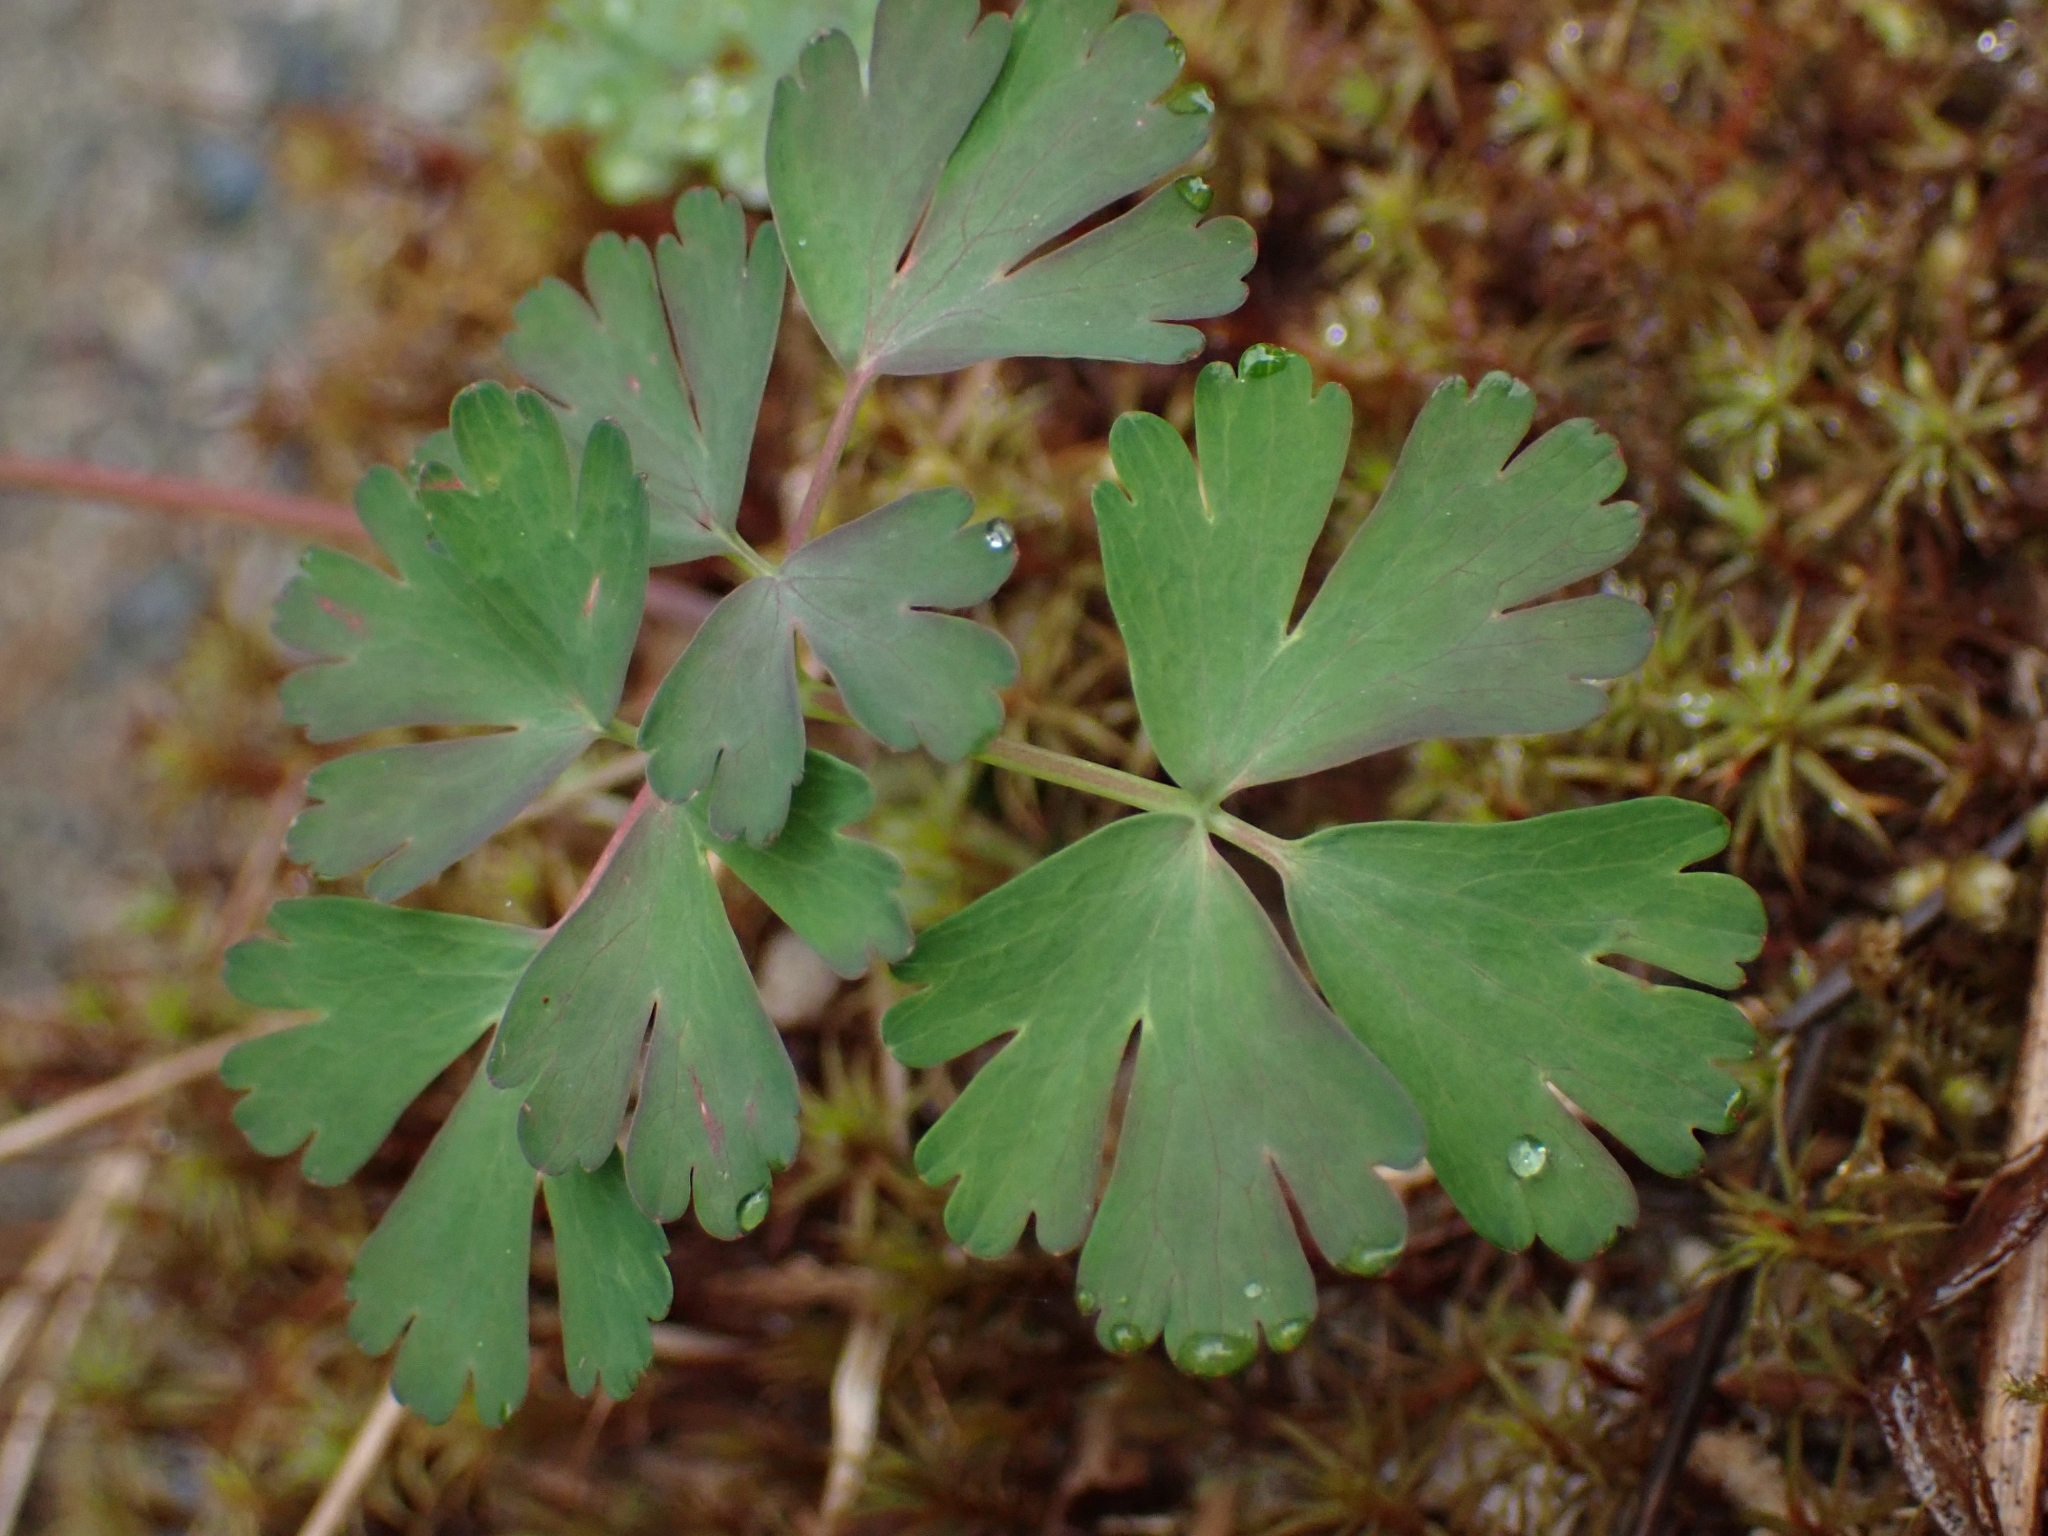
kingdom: Plantae
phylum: Tracheophyta
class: Magnoliopsida
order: Ranunculales
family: Ranunculaceae
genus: Aquilegia
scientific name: Aquilegia formosa
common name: Sitka columbine
